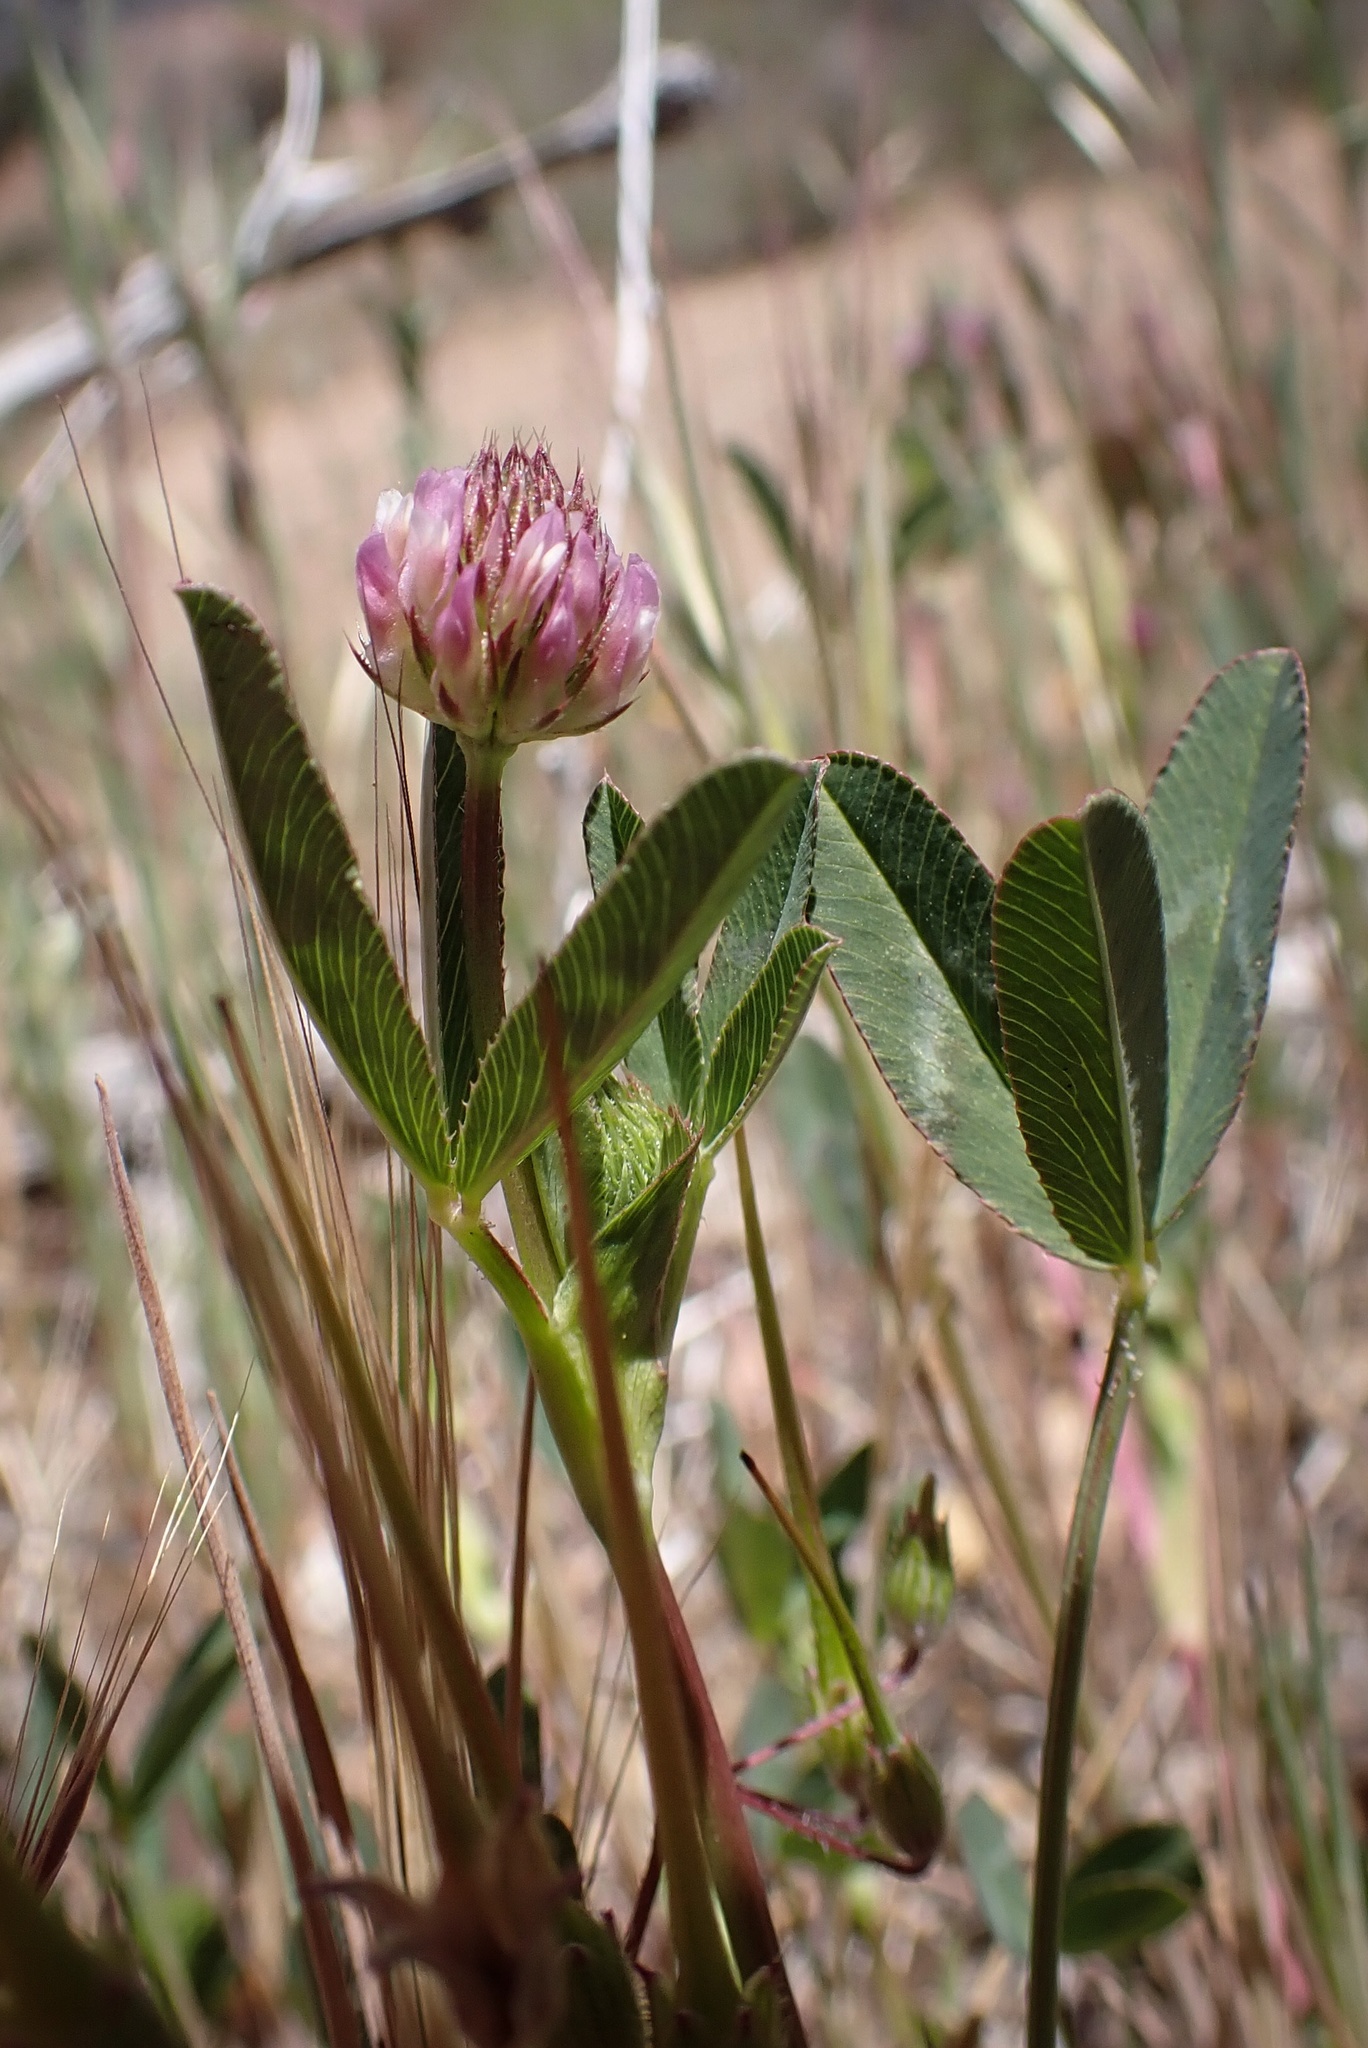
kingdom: Plantae
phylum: Tracheophyta
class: Magnoliopsida
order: Fabales
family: Fabaceae
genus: Trifolium
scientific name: Trifolium ciliolatum
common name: Foothill clover
